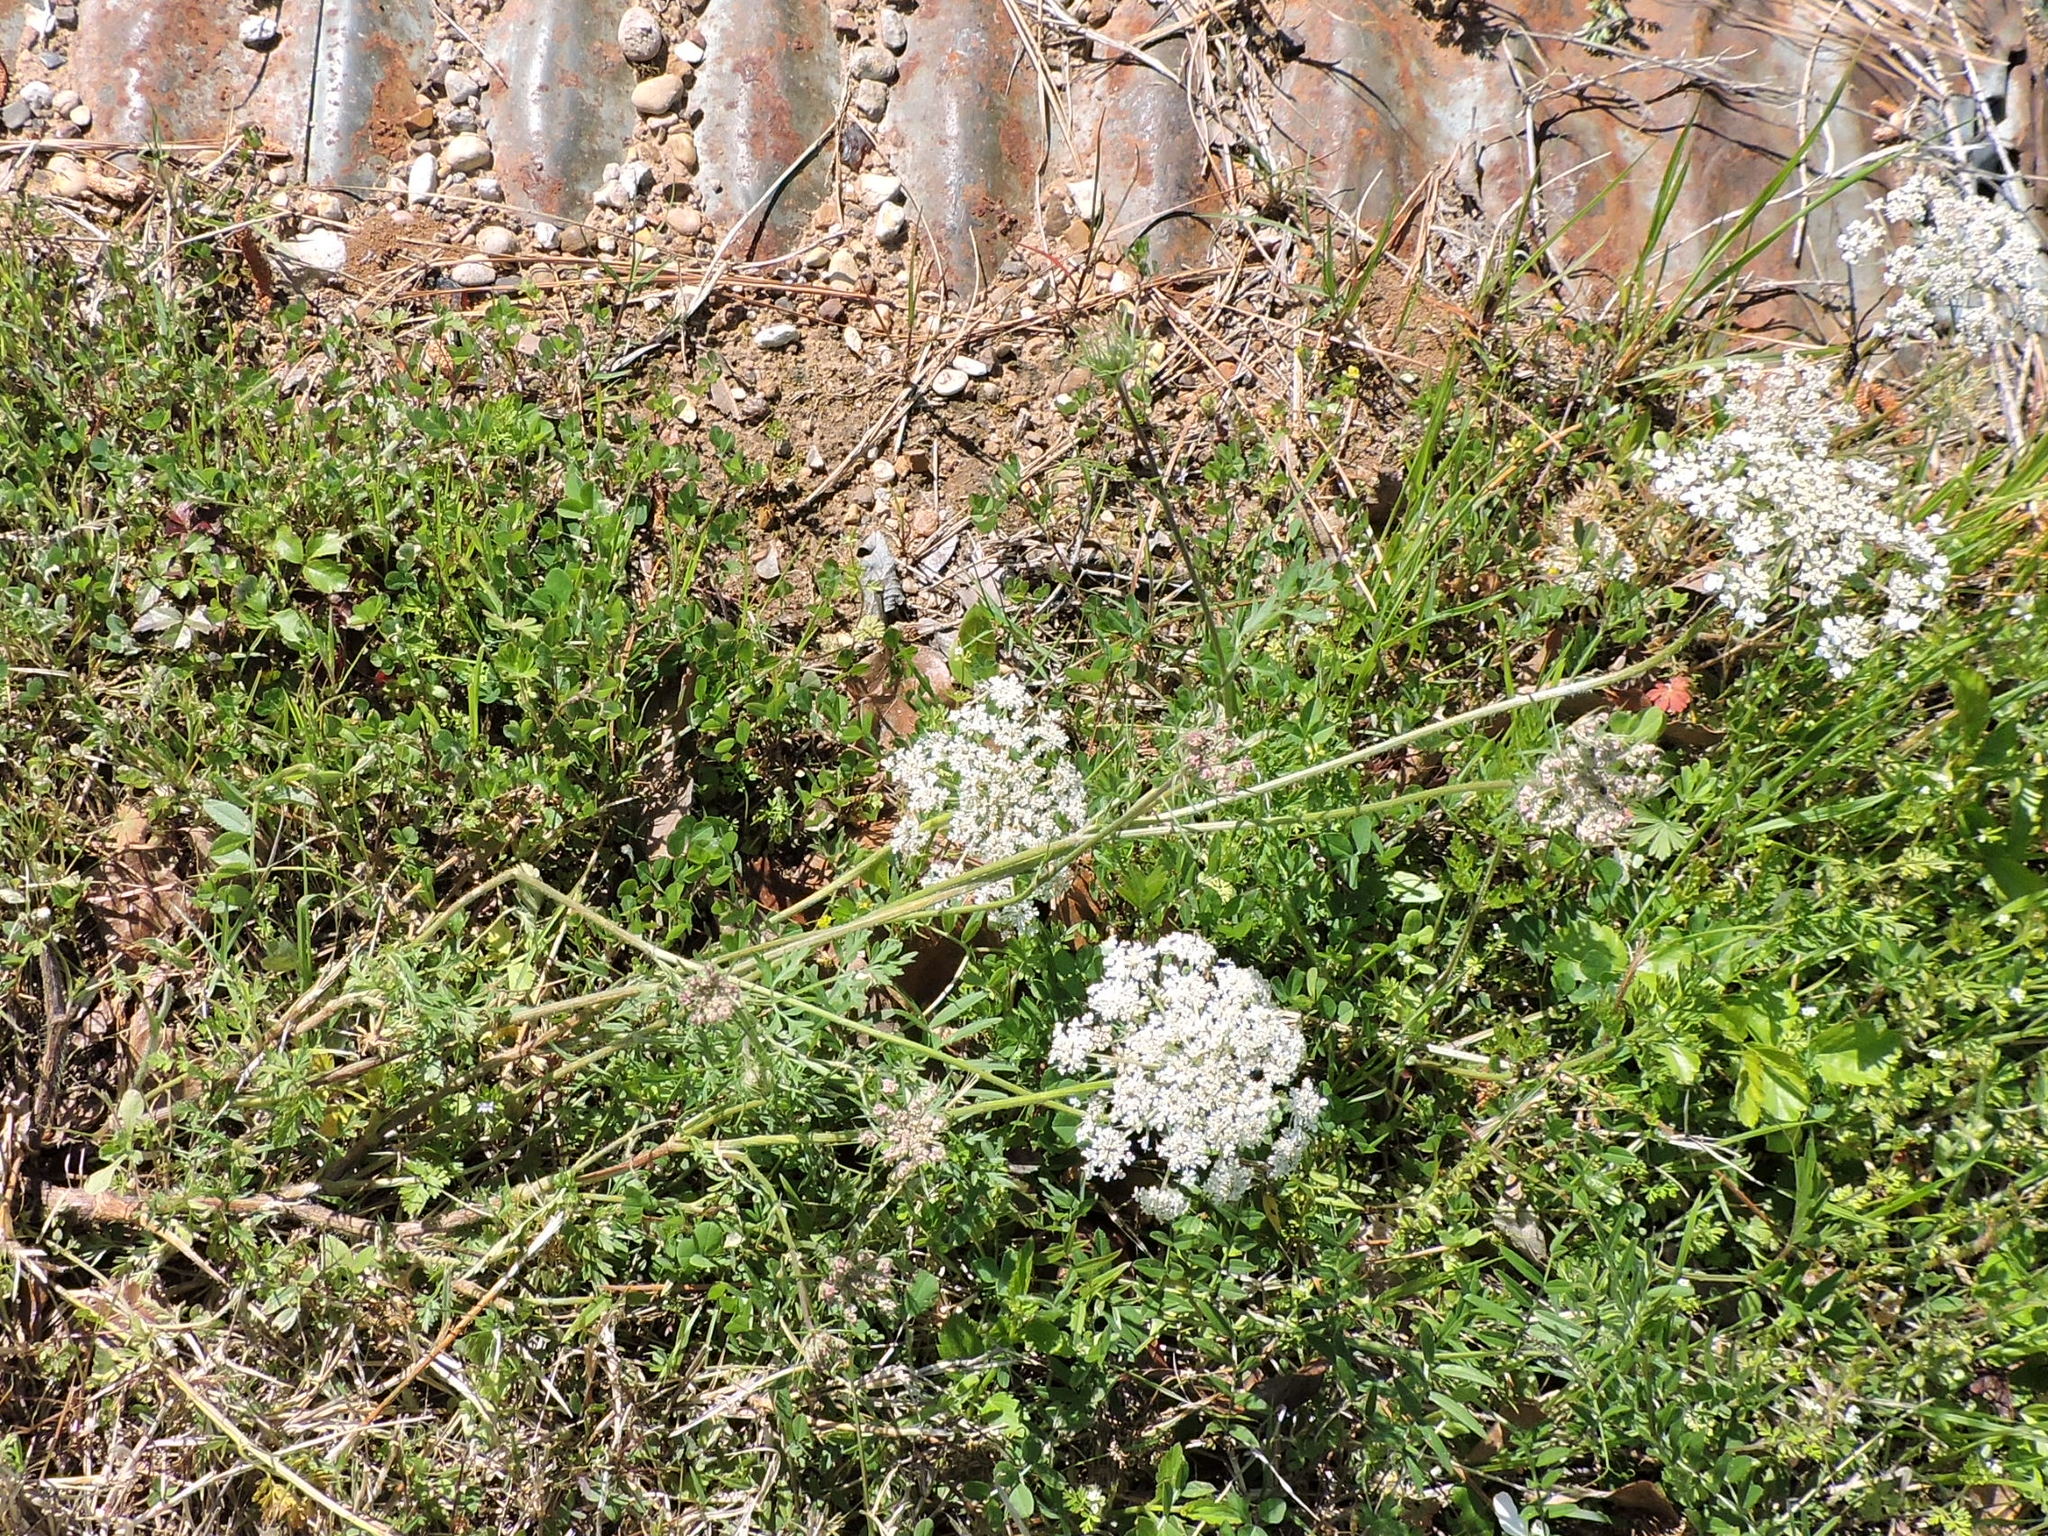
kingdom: Plantae
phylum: Tracheophyta
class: Magnoliopsida
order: Apiales
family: Apiaceae
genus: Daucus
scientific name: Daucus carota
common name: Wild carrot
